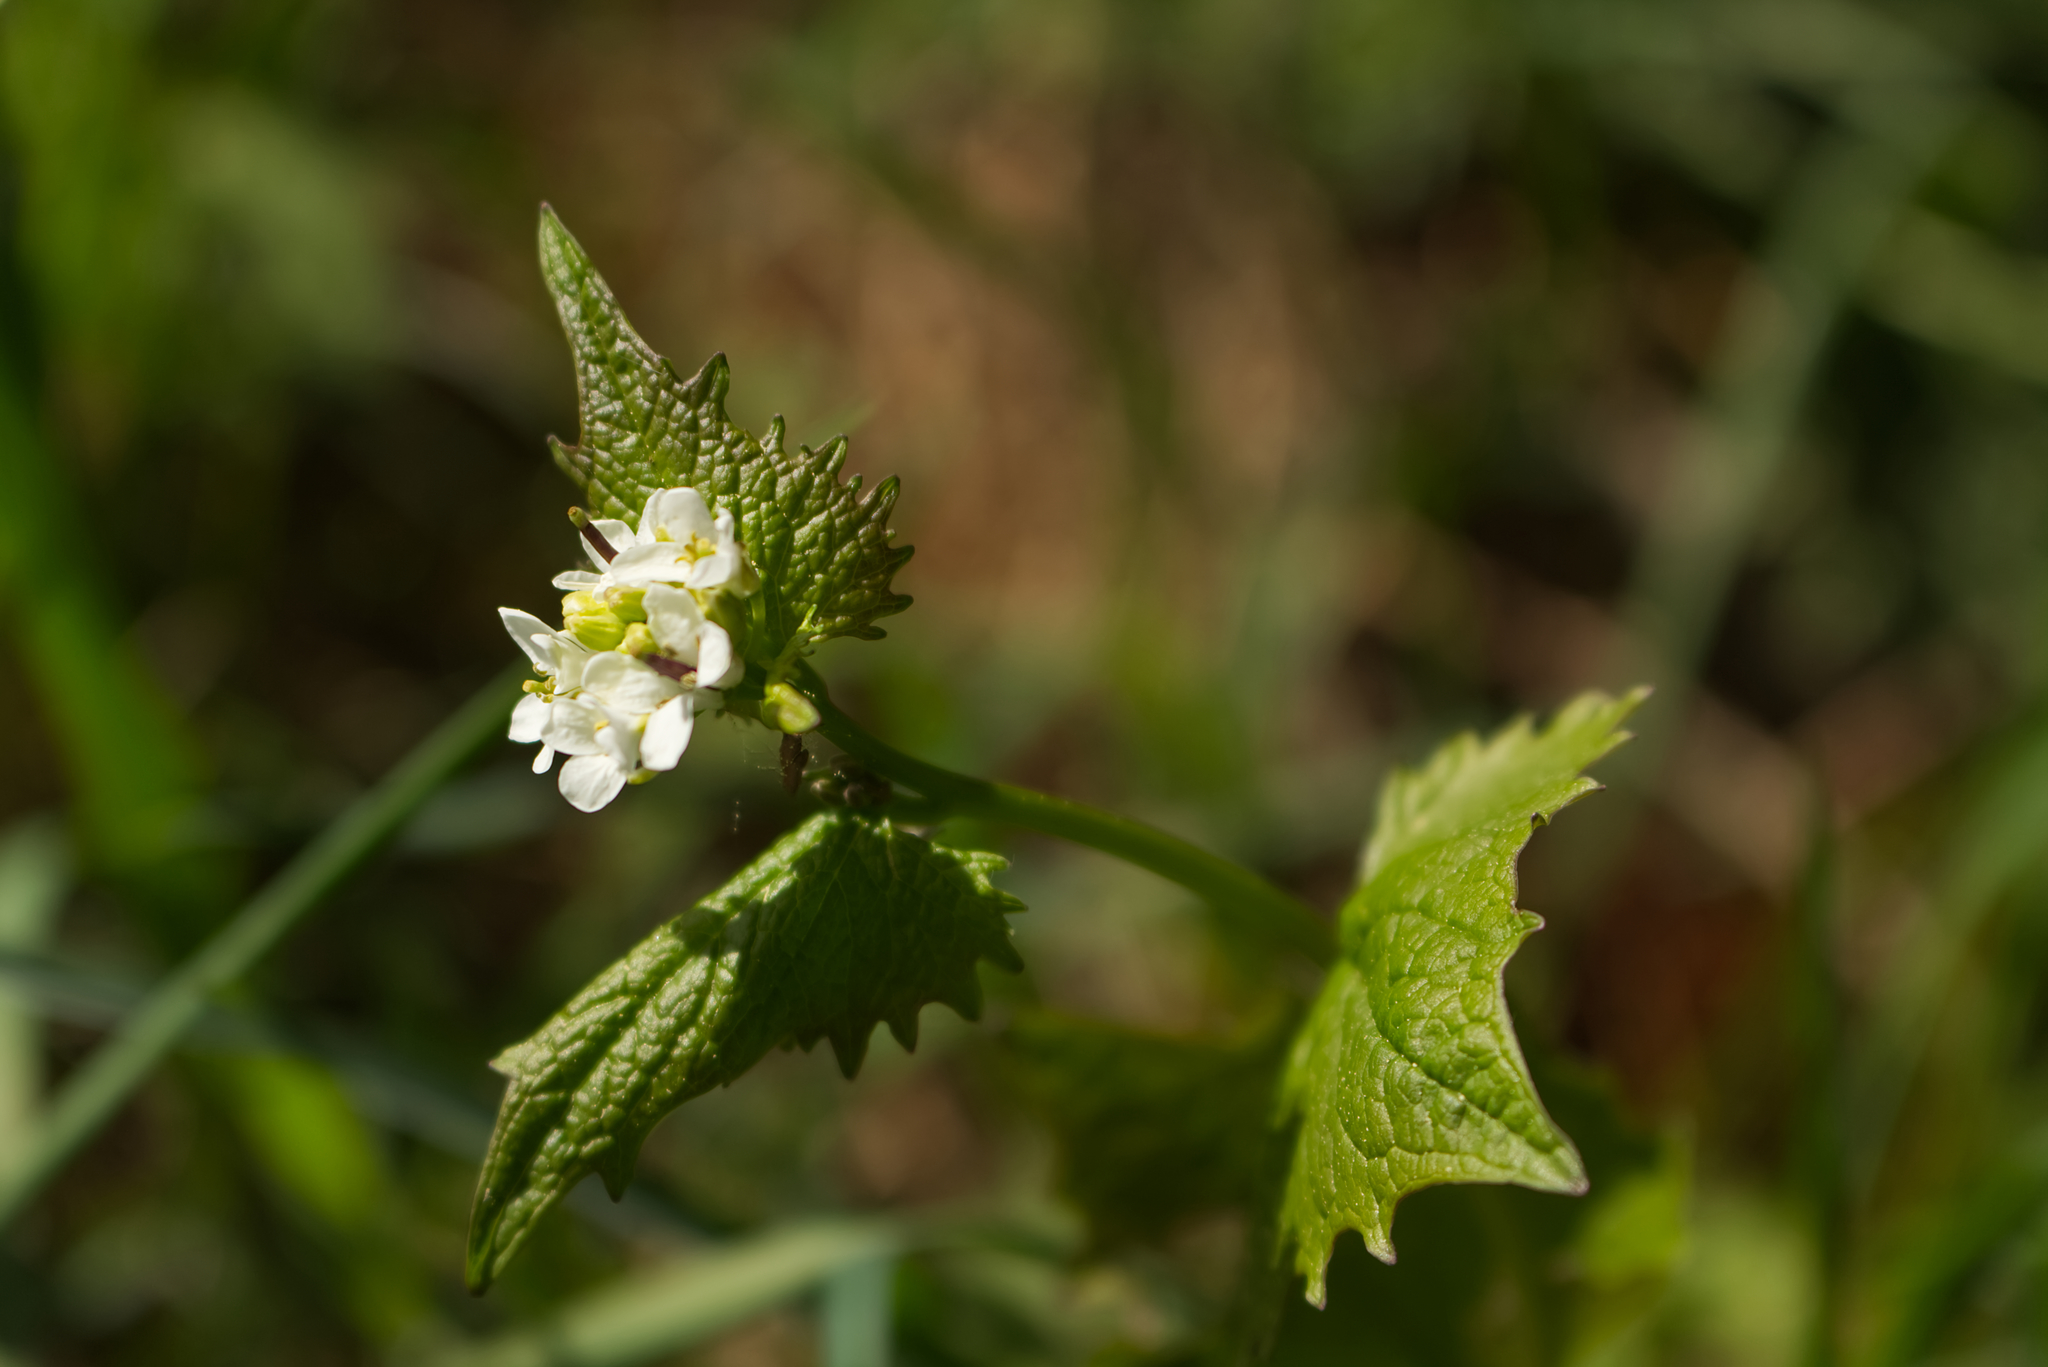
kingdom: Plantae
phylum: Tracheophyta
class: Magnoliopsida
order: Brassicales
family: Brassicaceae
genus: Alliaria
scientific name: Alliaria petiolata
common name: Garlic mustard
